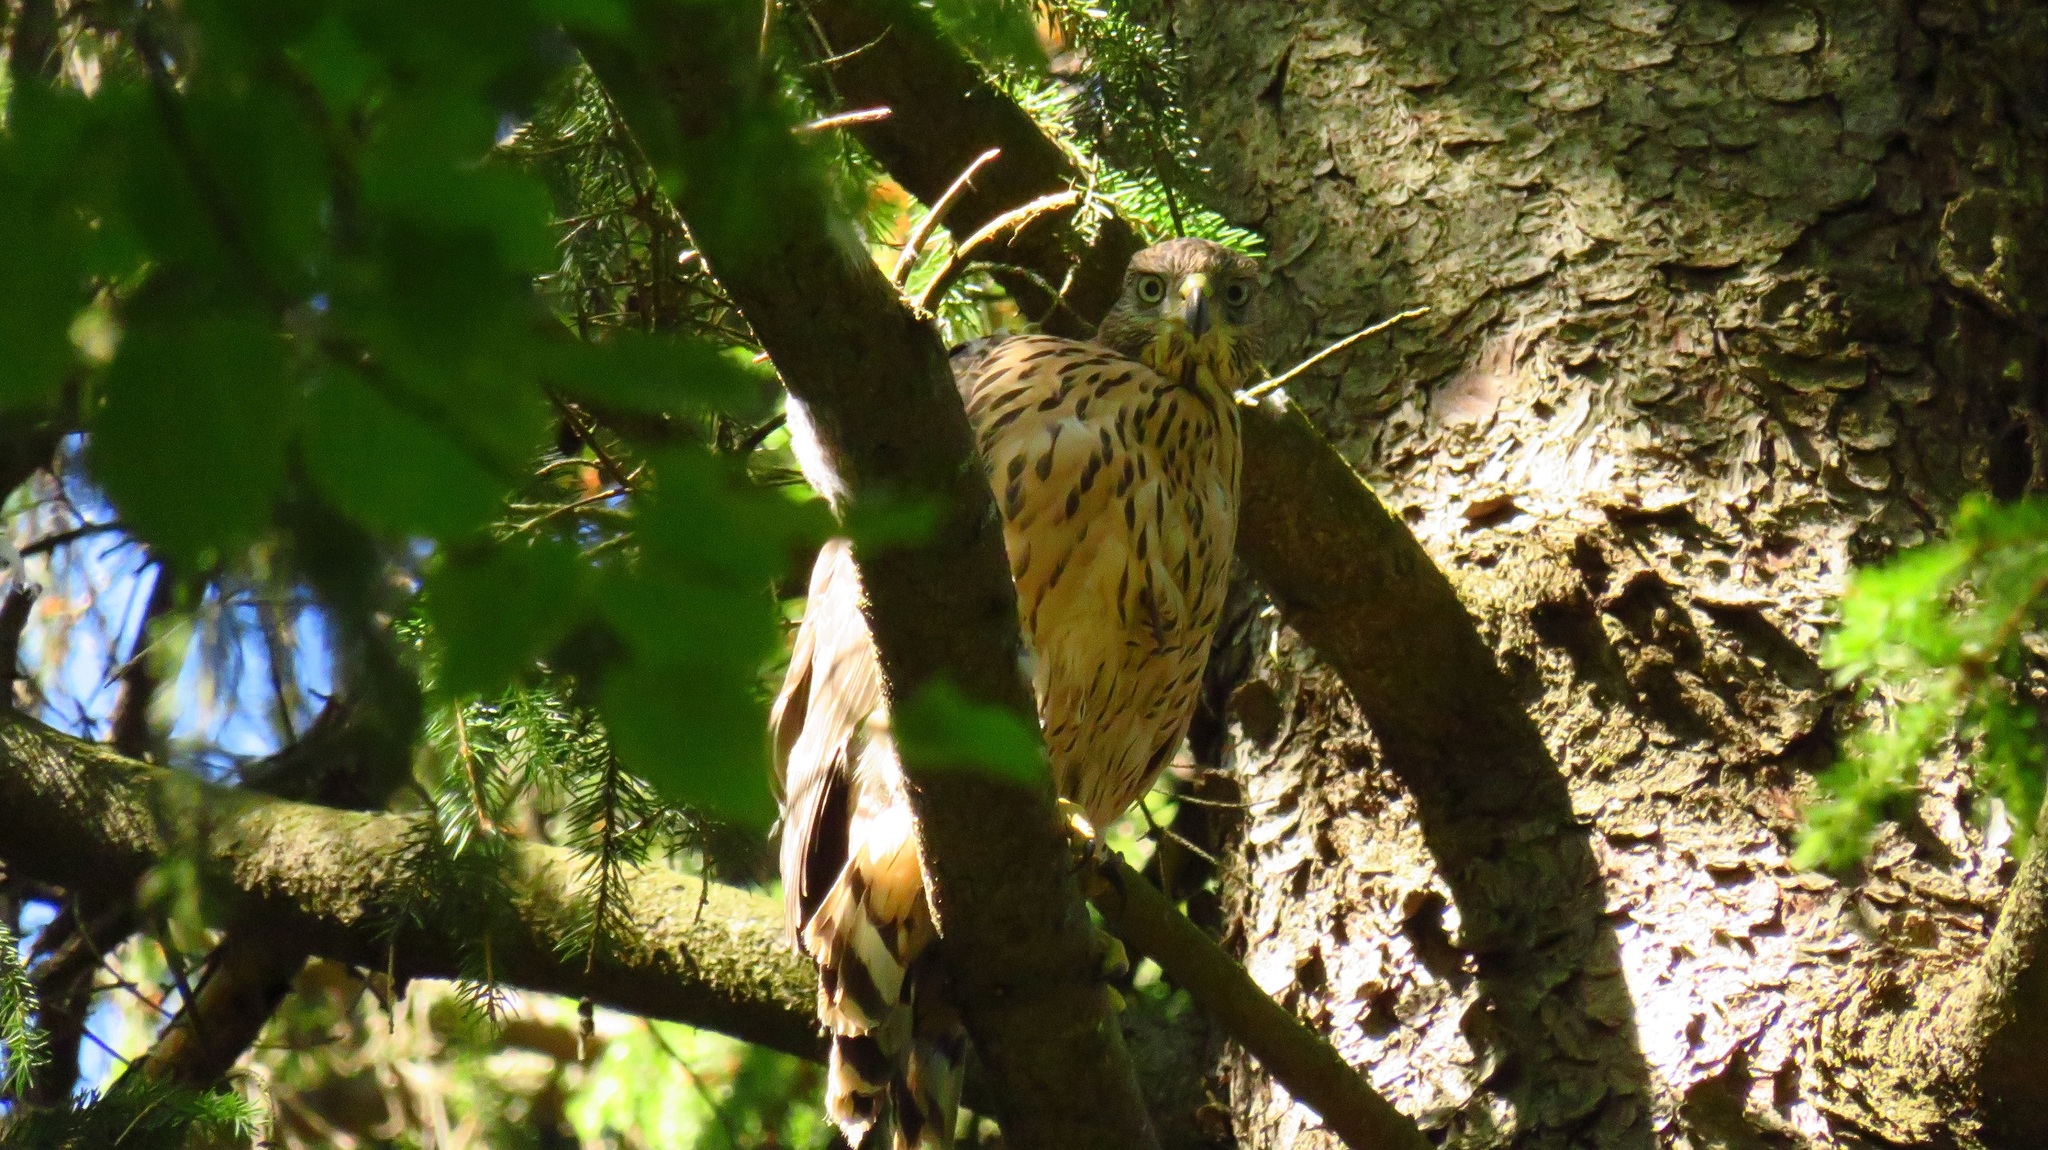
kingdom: Animalia
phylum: Chordata
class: Aves
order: Accipitriformes
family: Accipitridae
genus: Accipiter
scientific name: Accipiter gentilis
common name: Northern goshawk
